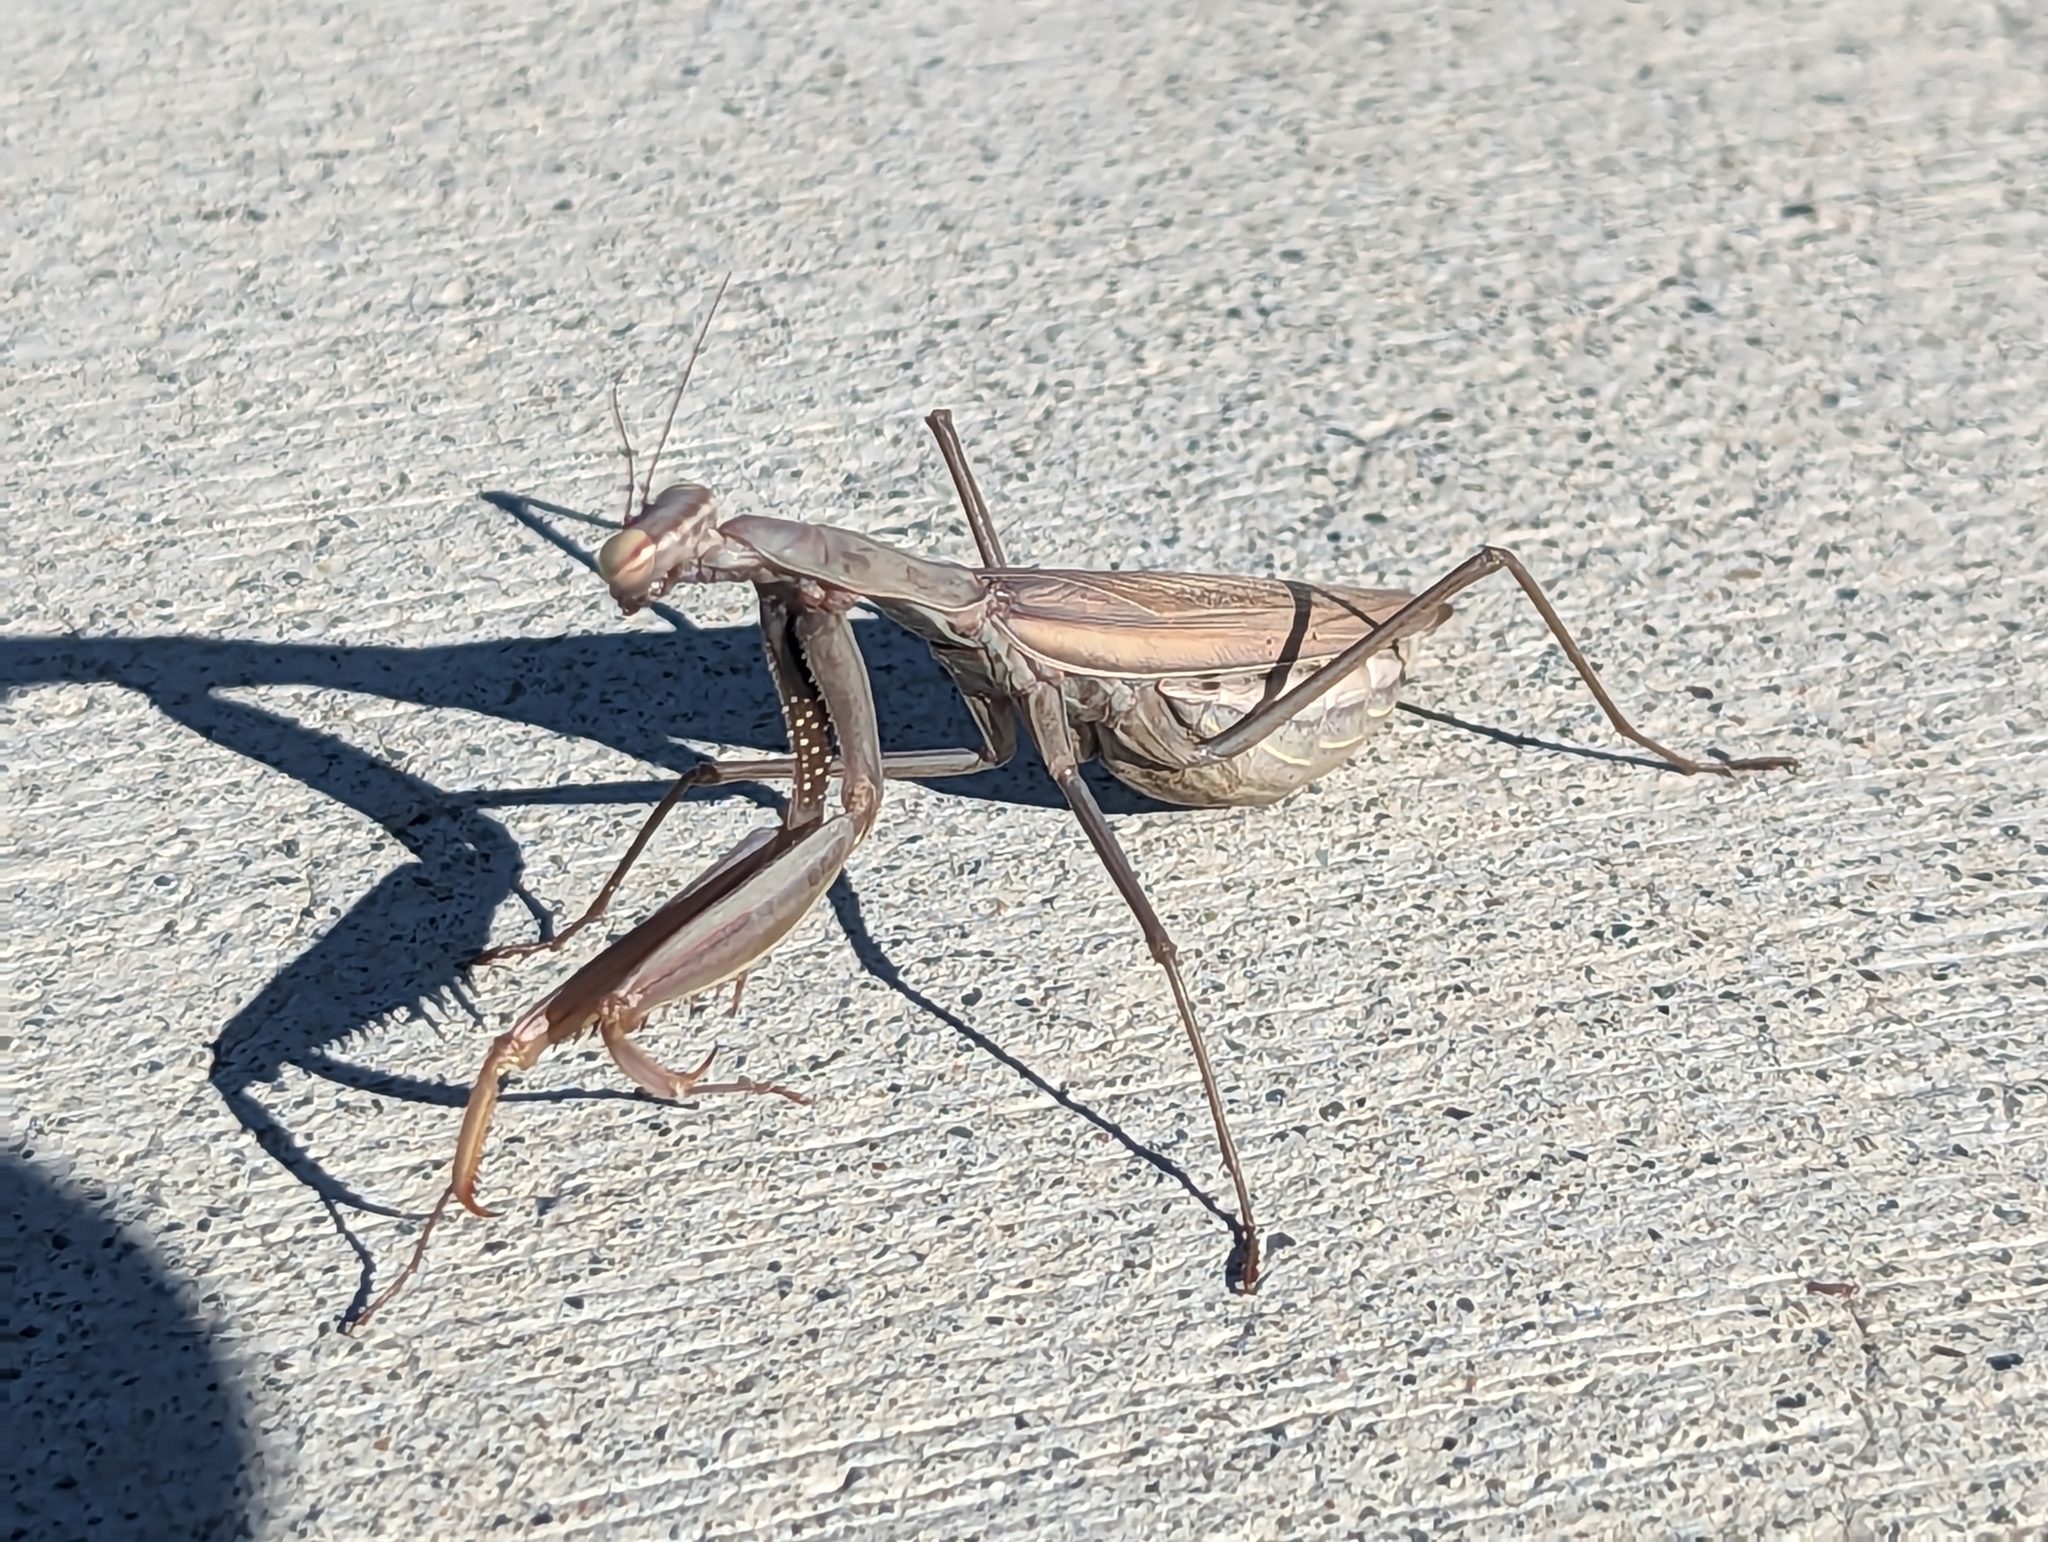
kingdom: Animalia
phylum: Arthropoda
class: Insecta
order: Mantodea
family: Mantidae
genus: Mantis
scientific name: Mantis religiosa
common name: Praying mantis
